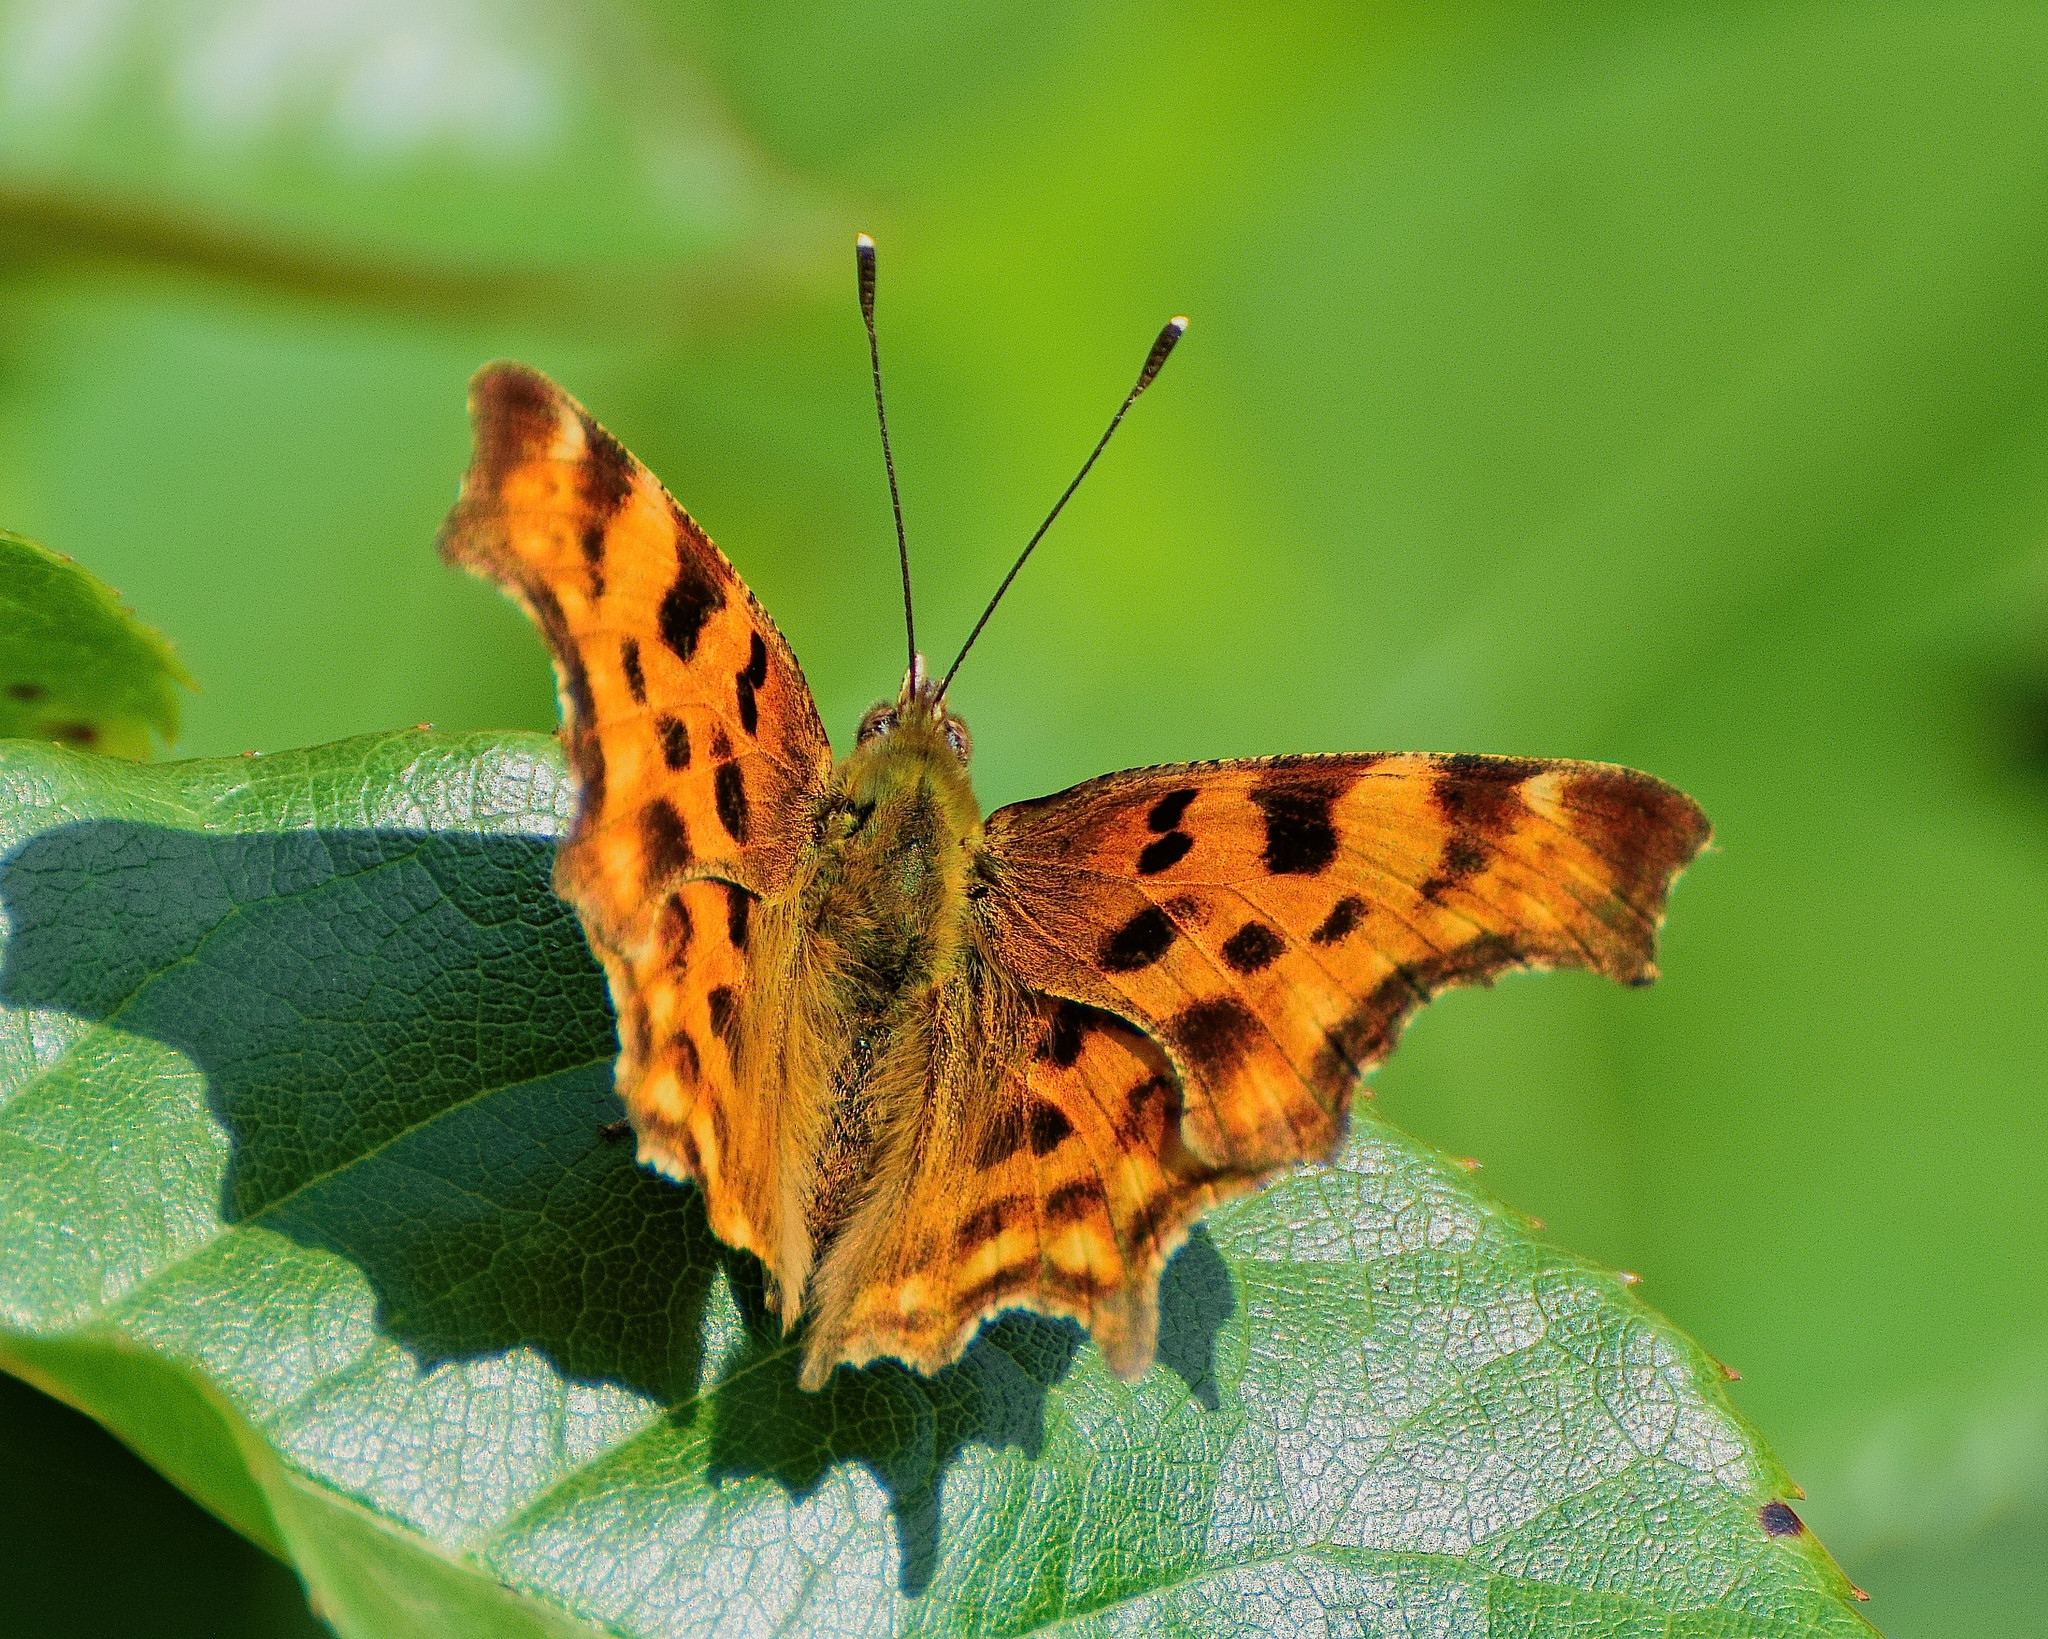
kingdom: Animalia
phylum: Arthropoda
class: Insecta
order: Lepidoptera
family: Nymphalidae
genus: Polygonia
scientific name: Polygonia c-album
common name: Comma
